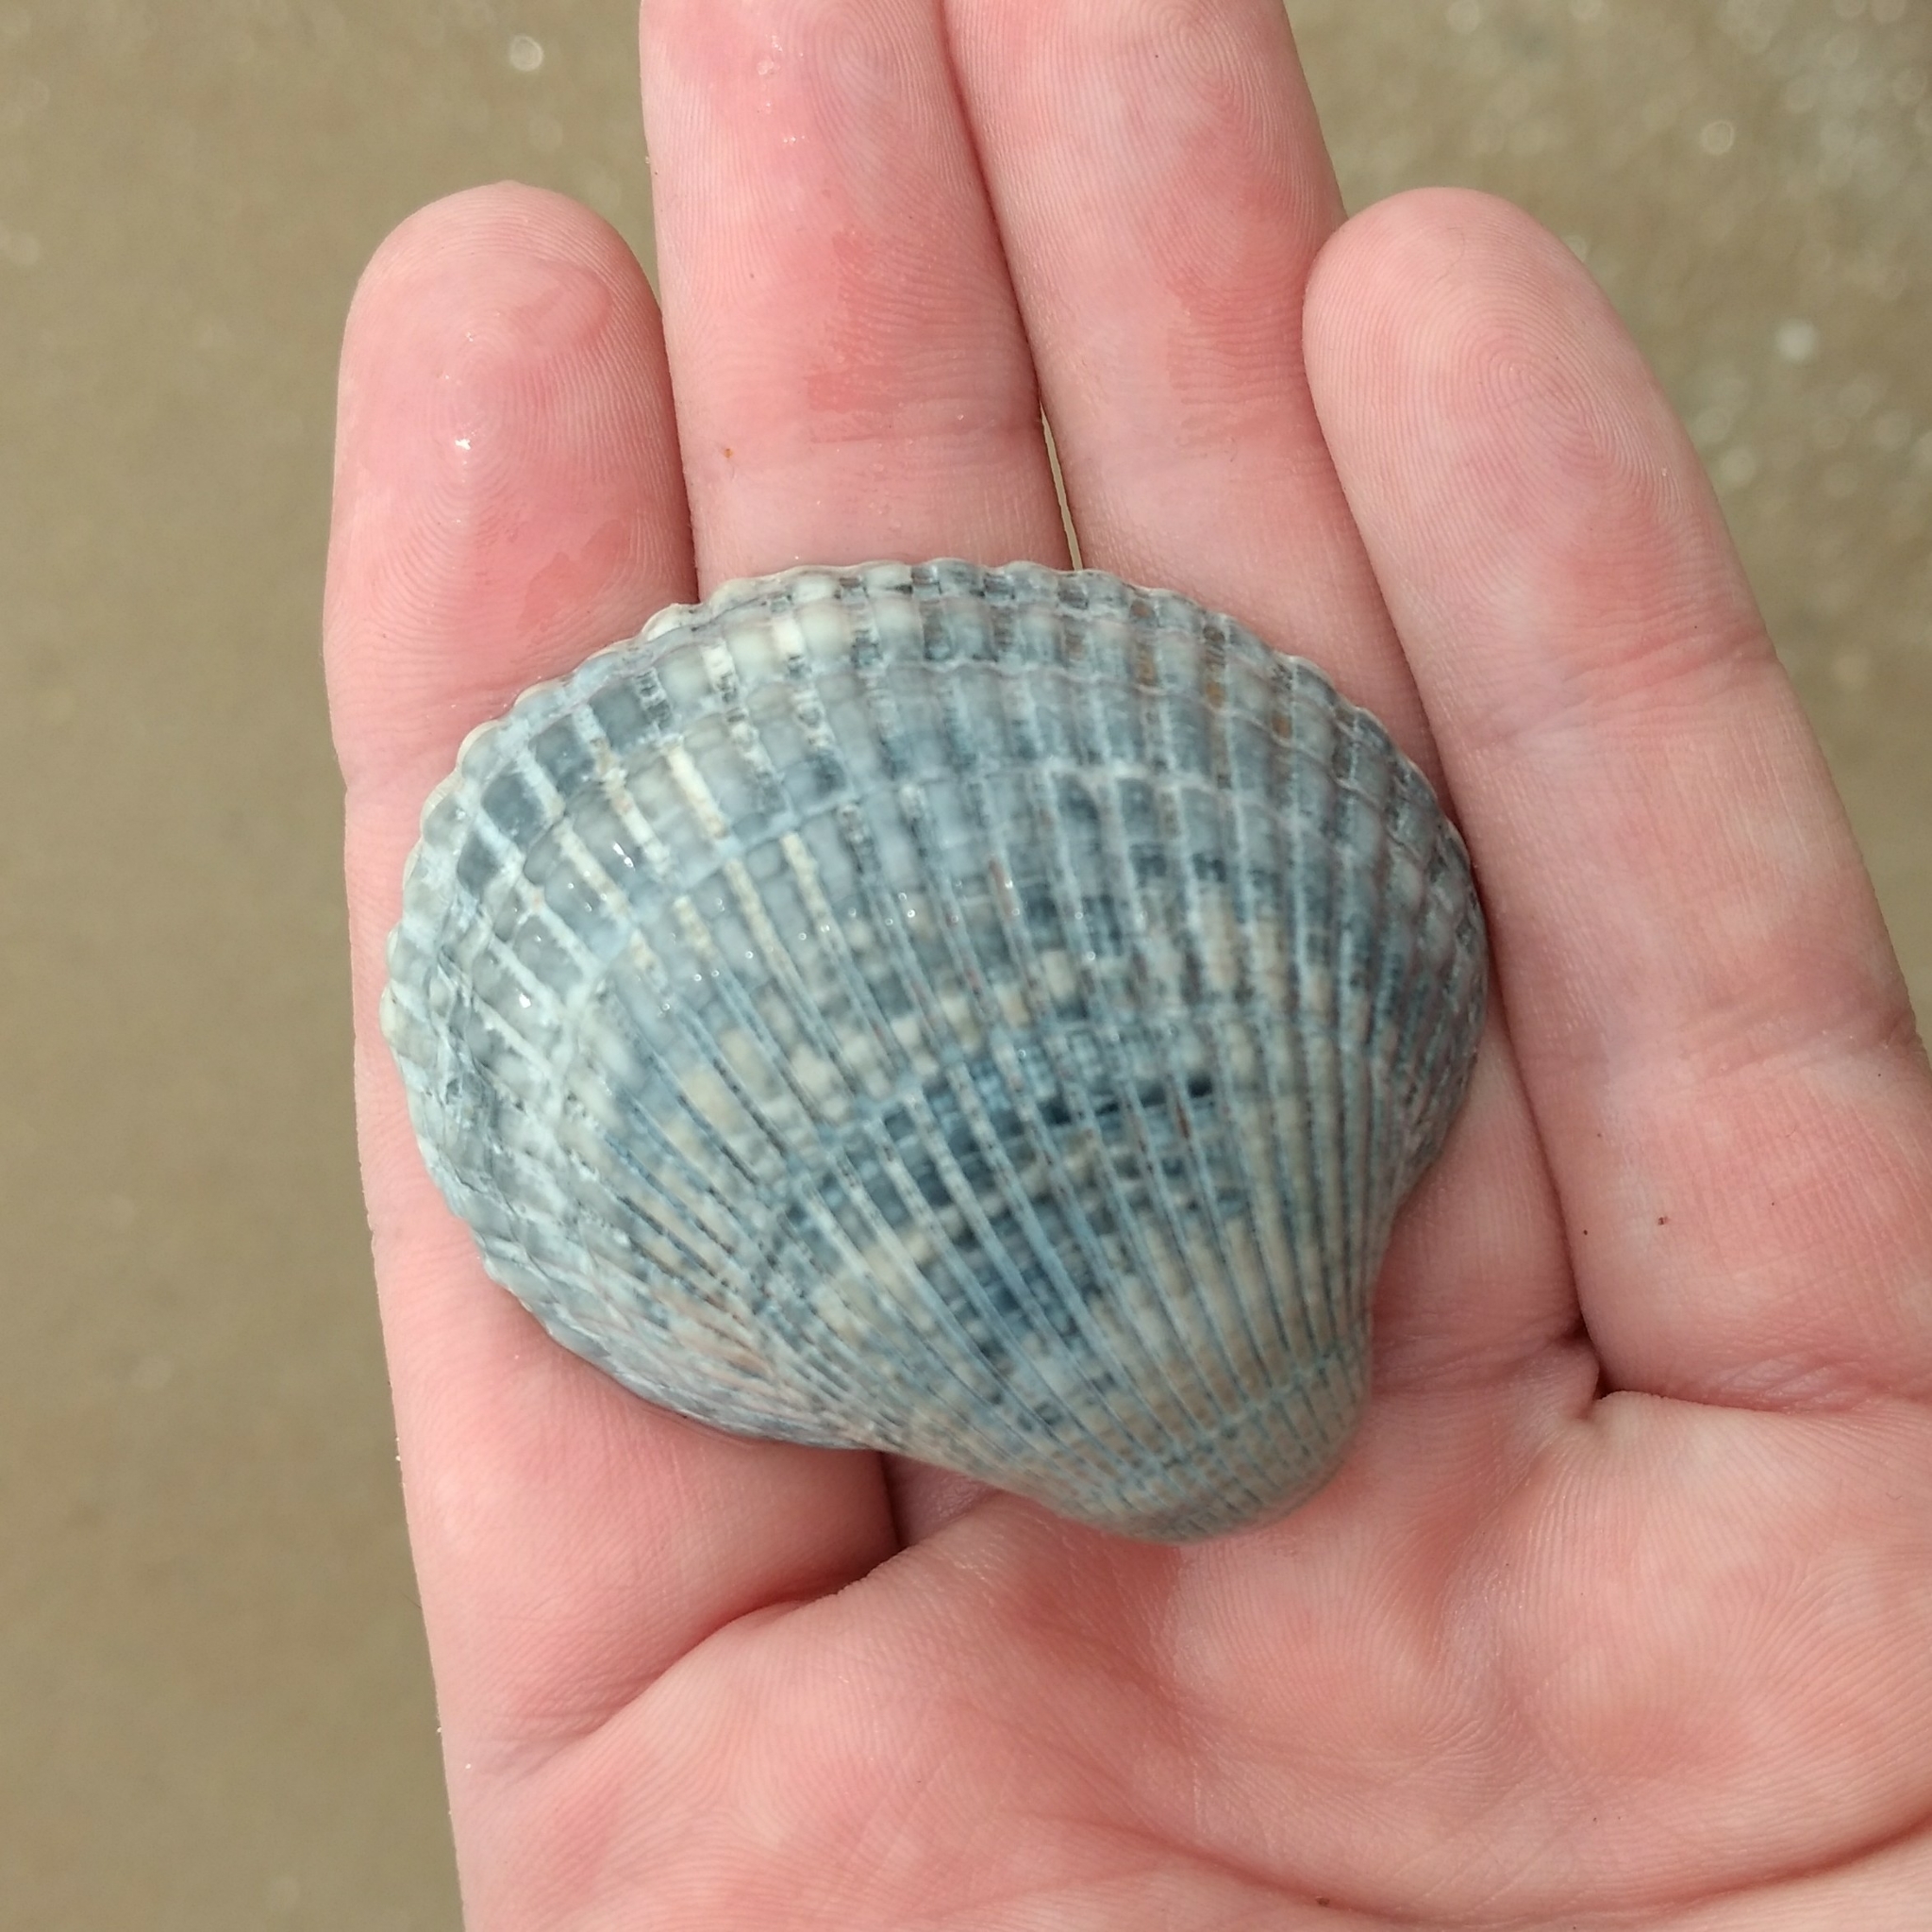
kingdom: Animalia
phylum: Mollusca
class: Bivalvia
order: Arcida
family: Arcidae
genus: Lunarca
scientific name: Lunarca ovalis
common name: Blood ark
